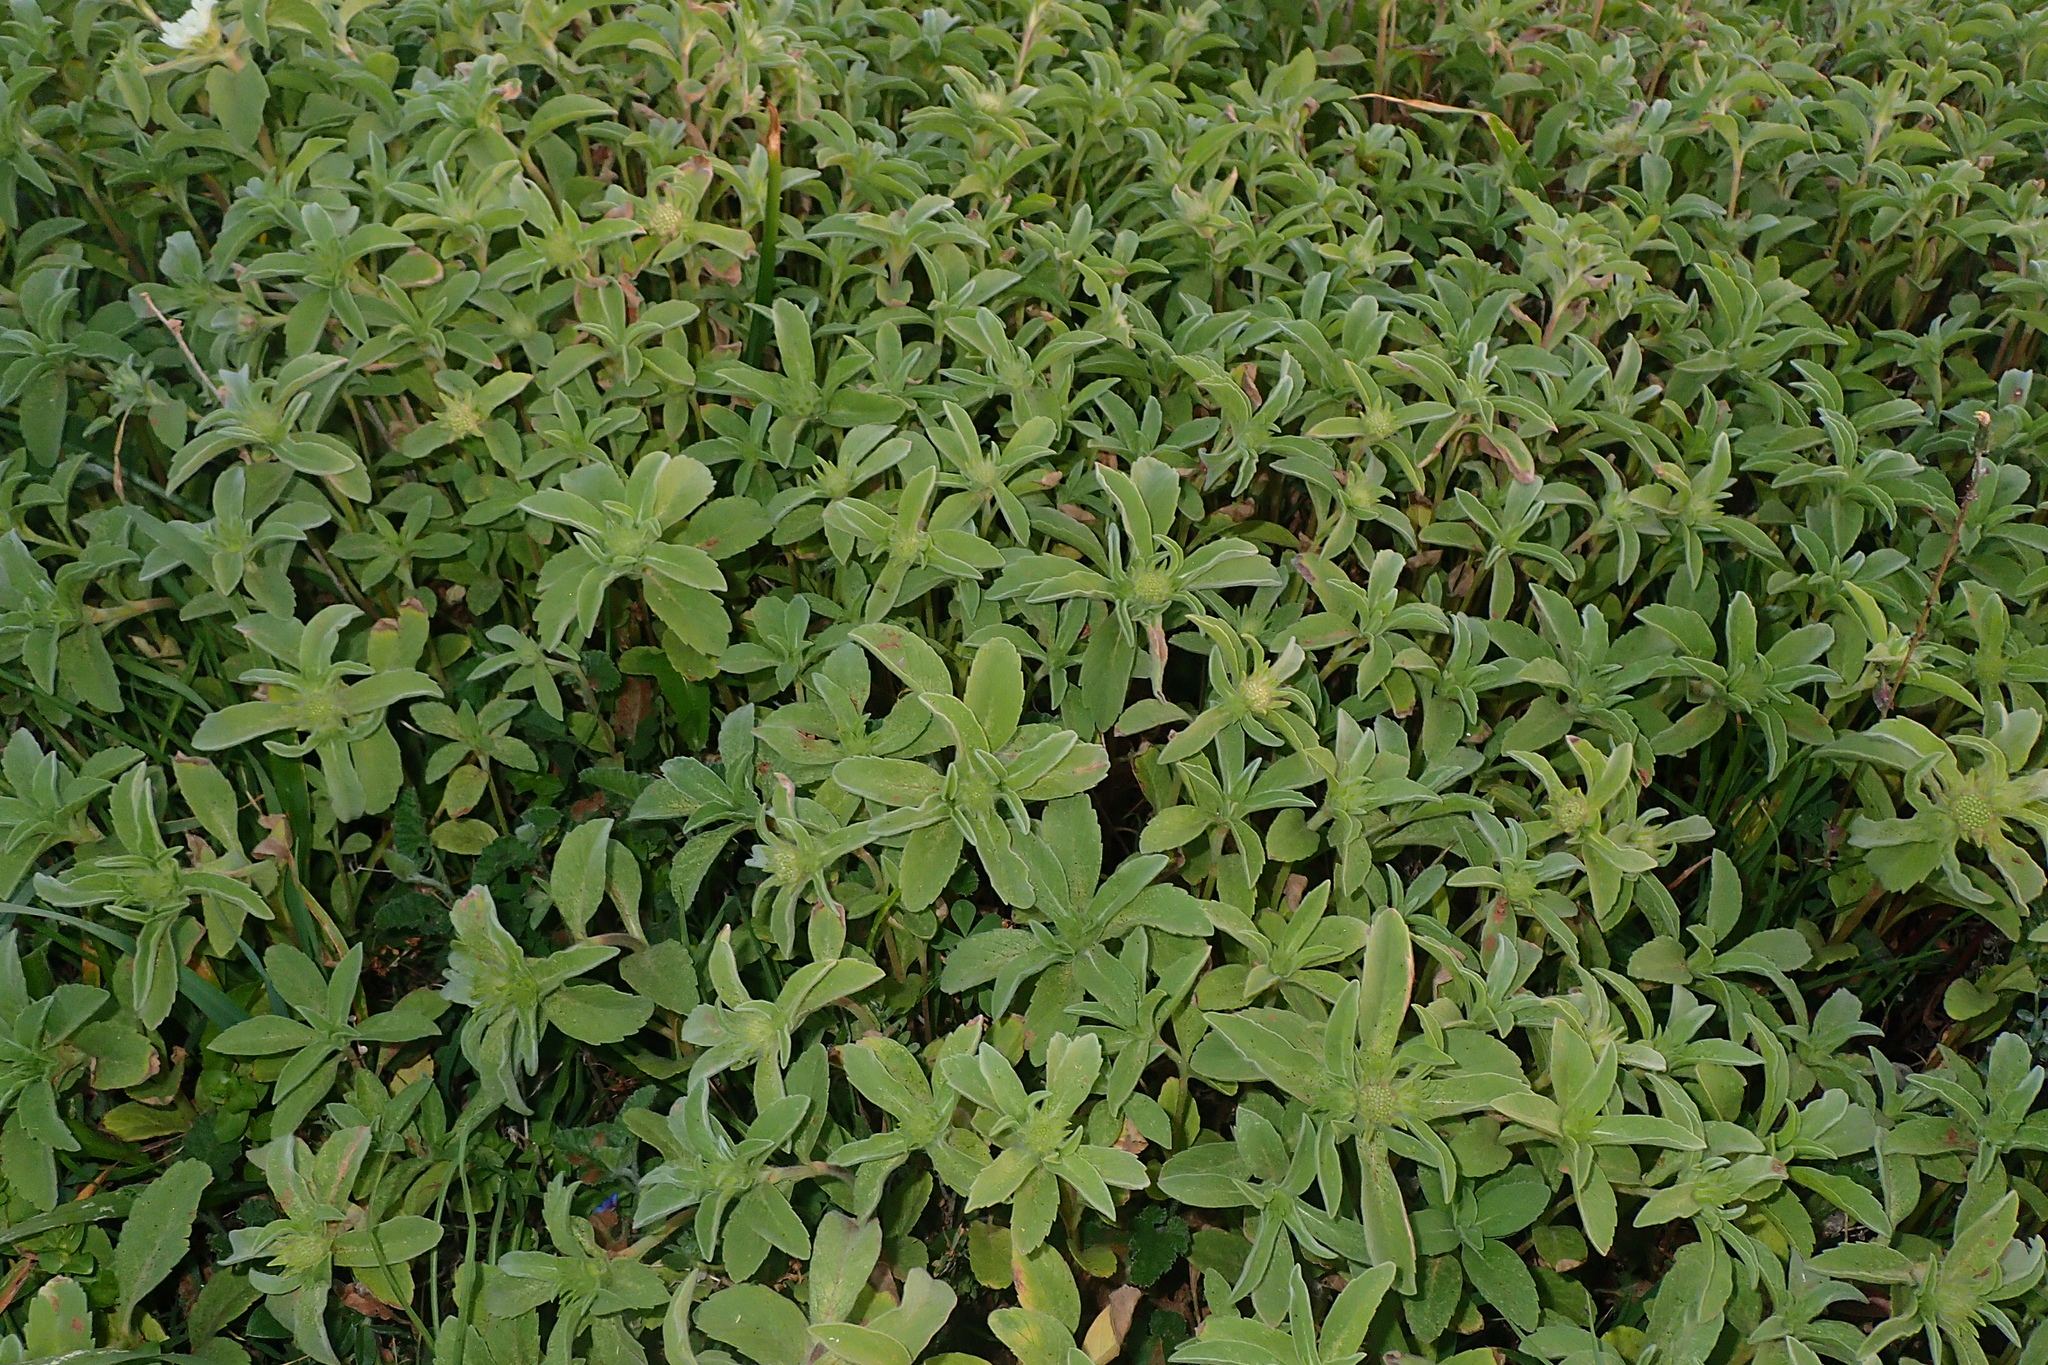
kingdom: Plantae
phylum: Tracheophyta
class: Magnoliopsida
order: Dipsacales
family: Caprifoliaceae
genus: Lomelosia
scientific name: Lomelosia prolifera
